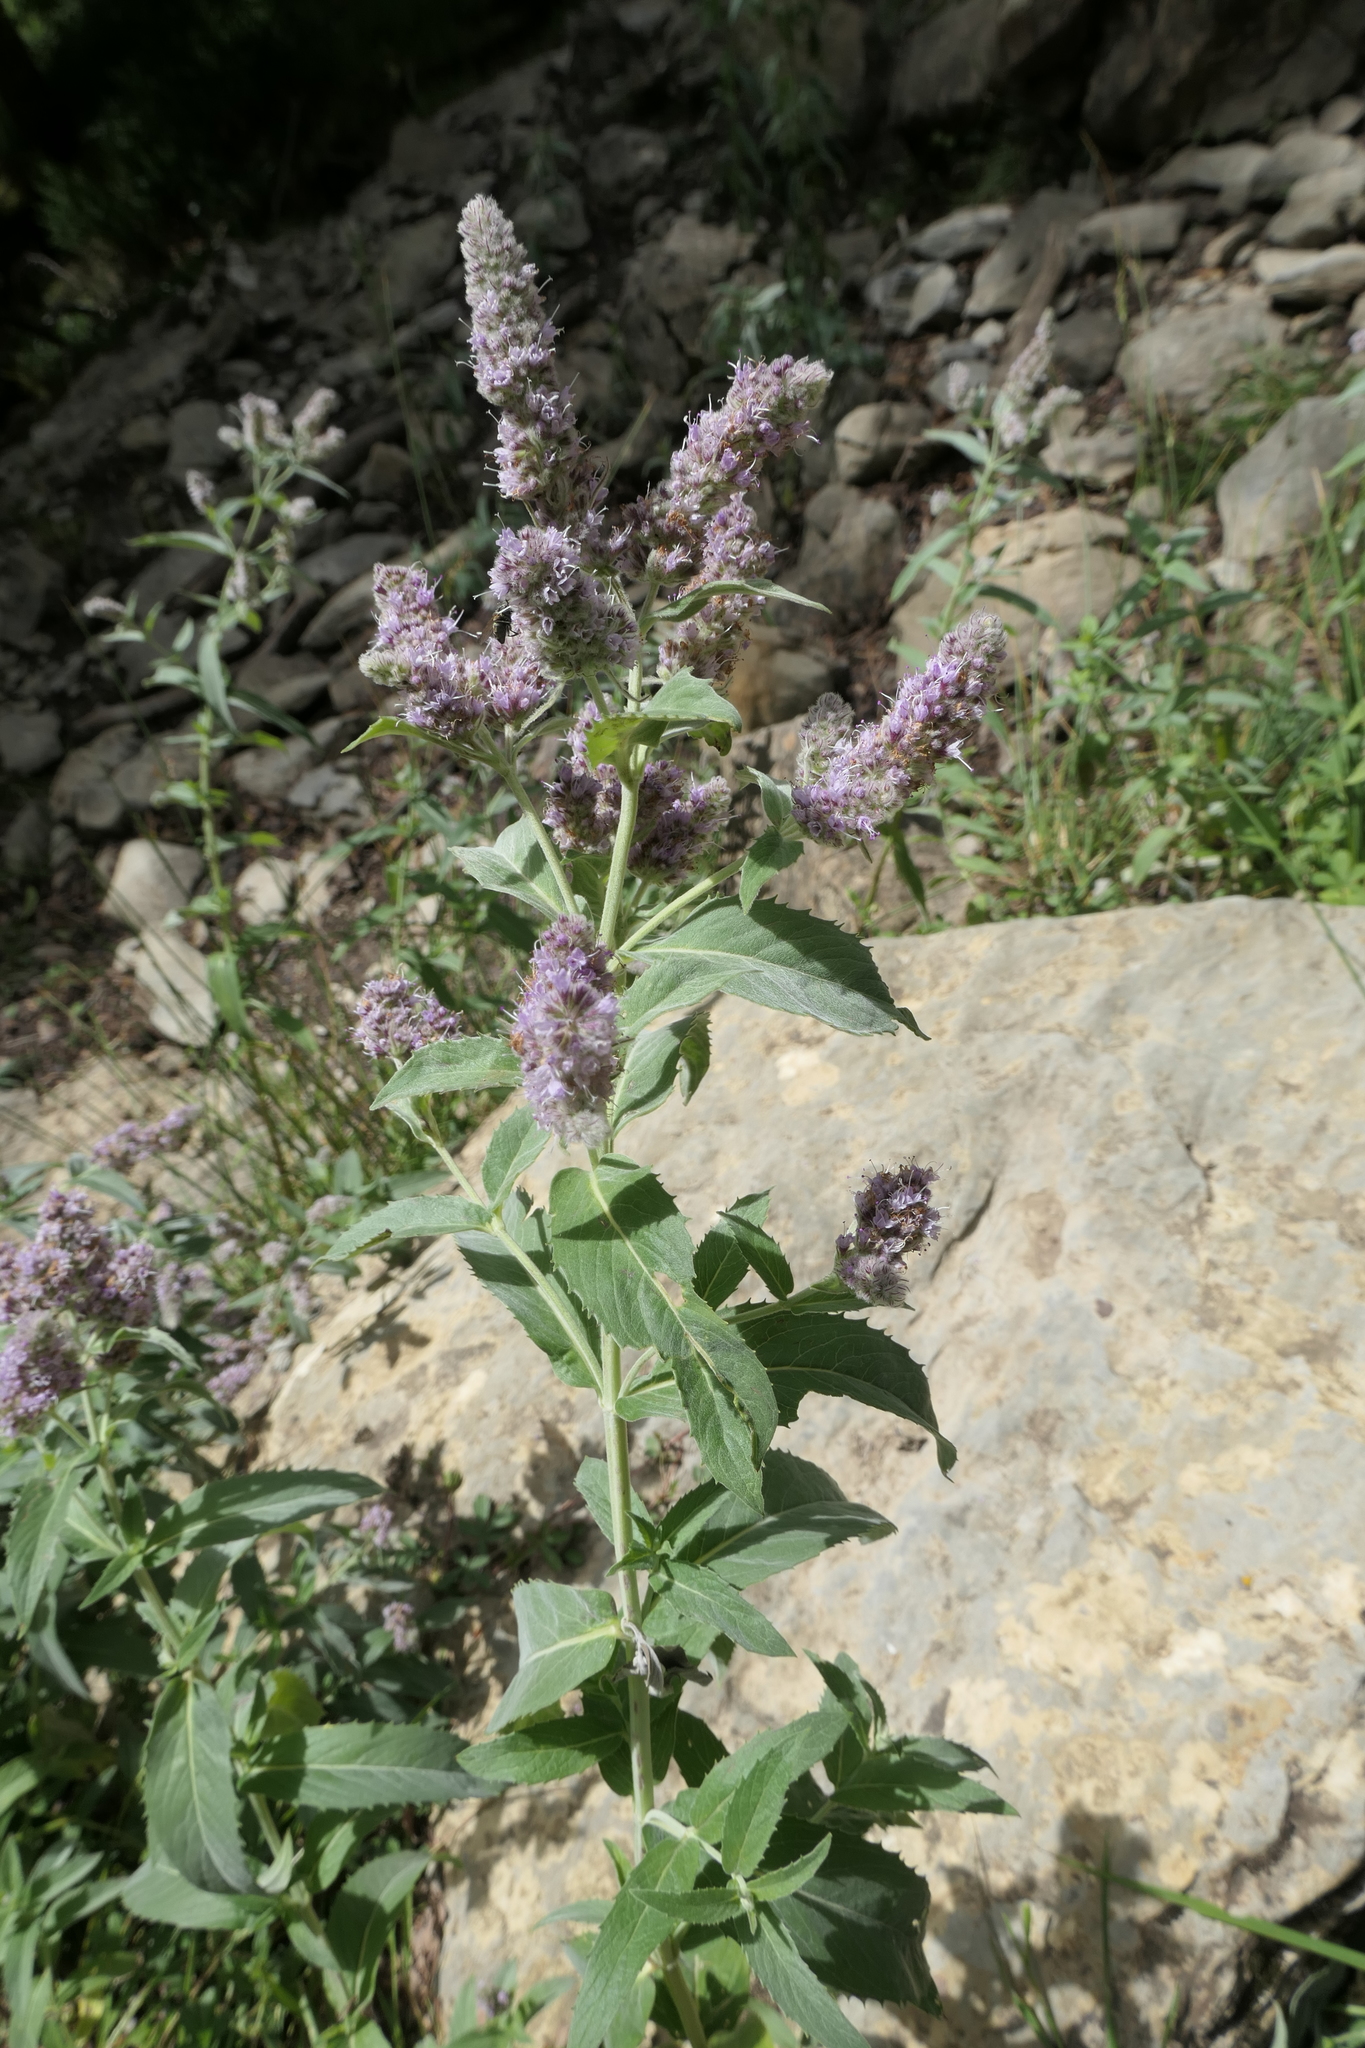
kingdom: Plantae
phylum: Tracheophyta
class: Magnoliopsida
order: Lamiales
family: Lamiaceae
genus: Mentha
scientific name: Mentha longifolia
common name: Horse mint
